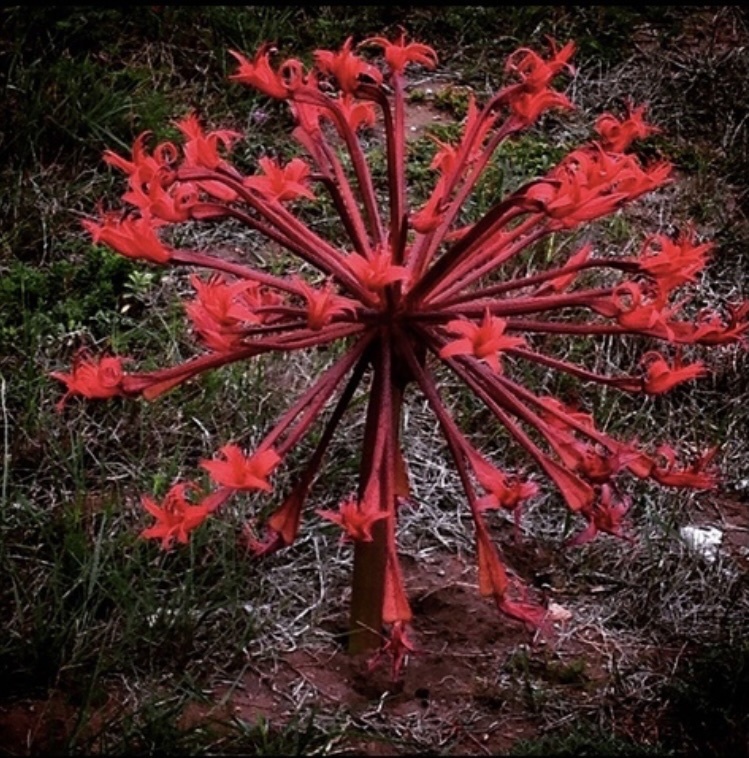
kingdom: Plantae
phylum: Tracheophyta
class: Liliopsida
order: Asparagales
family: Amaryllidaceae
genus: Brunsvigia
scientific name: Brunsvigia orientalis
